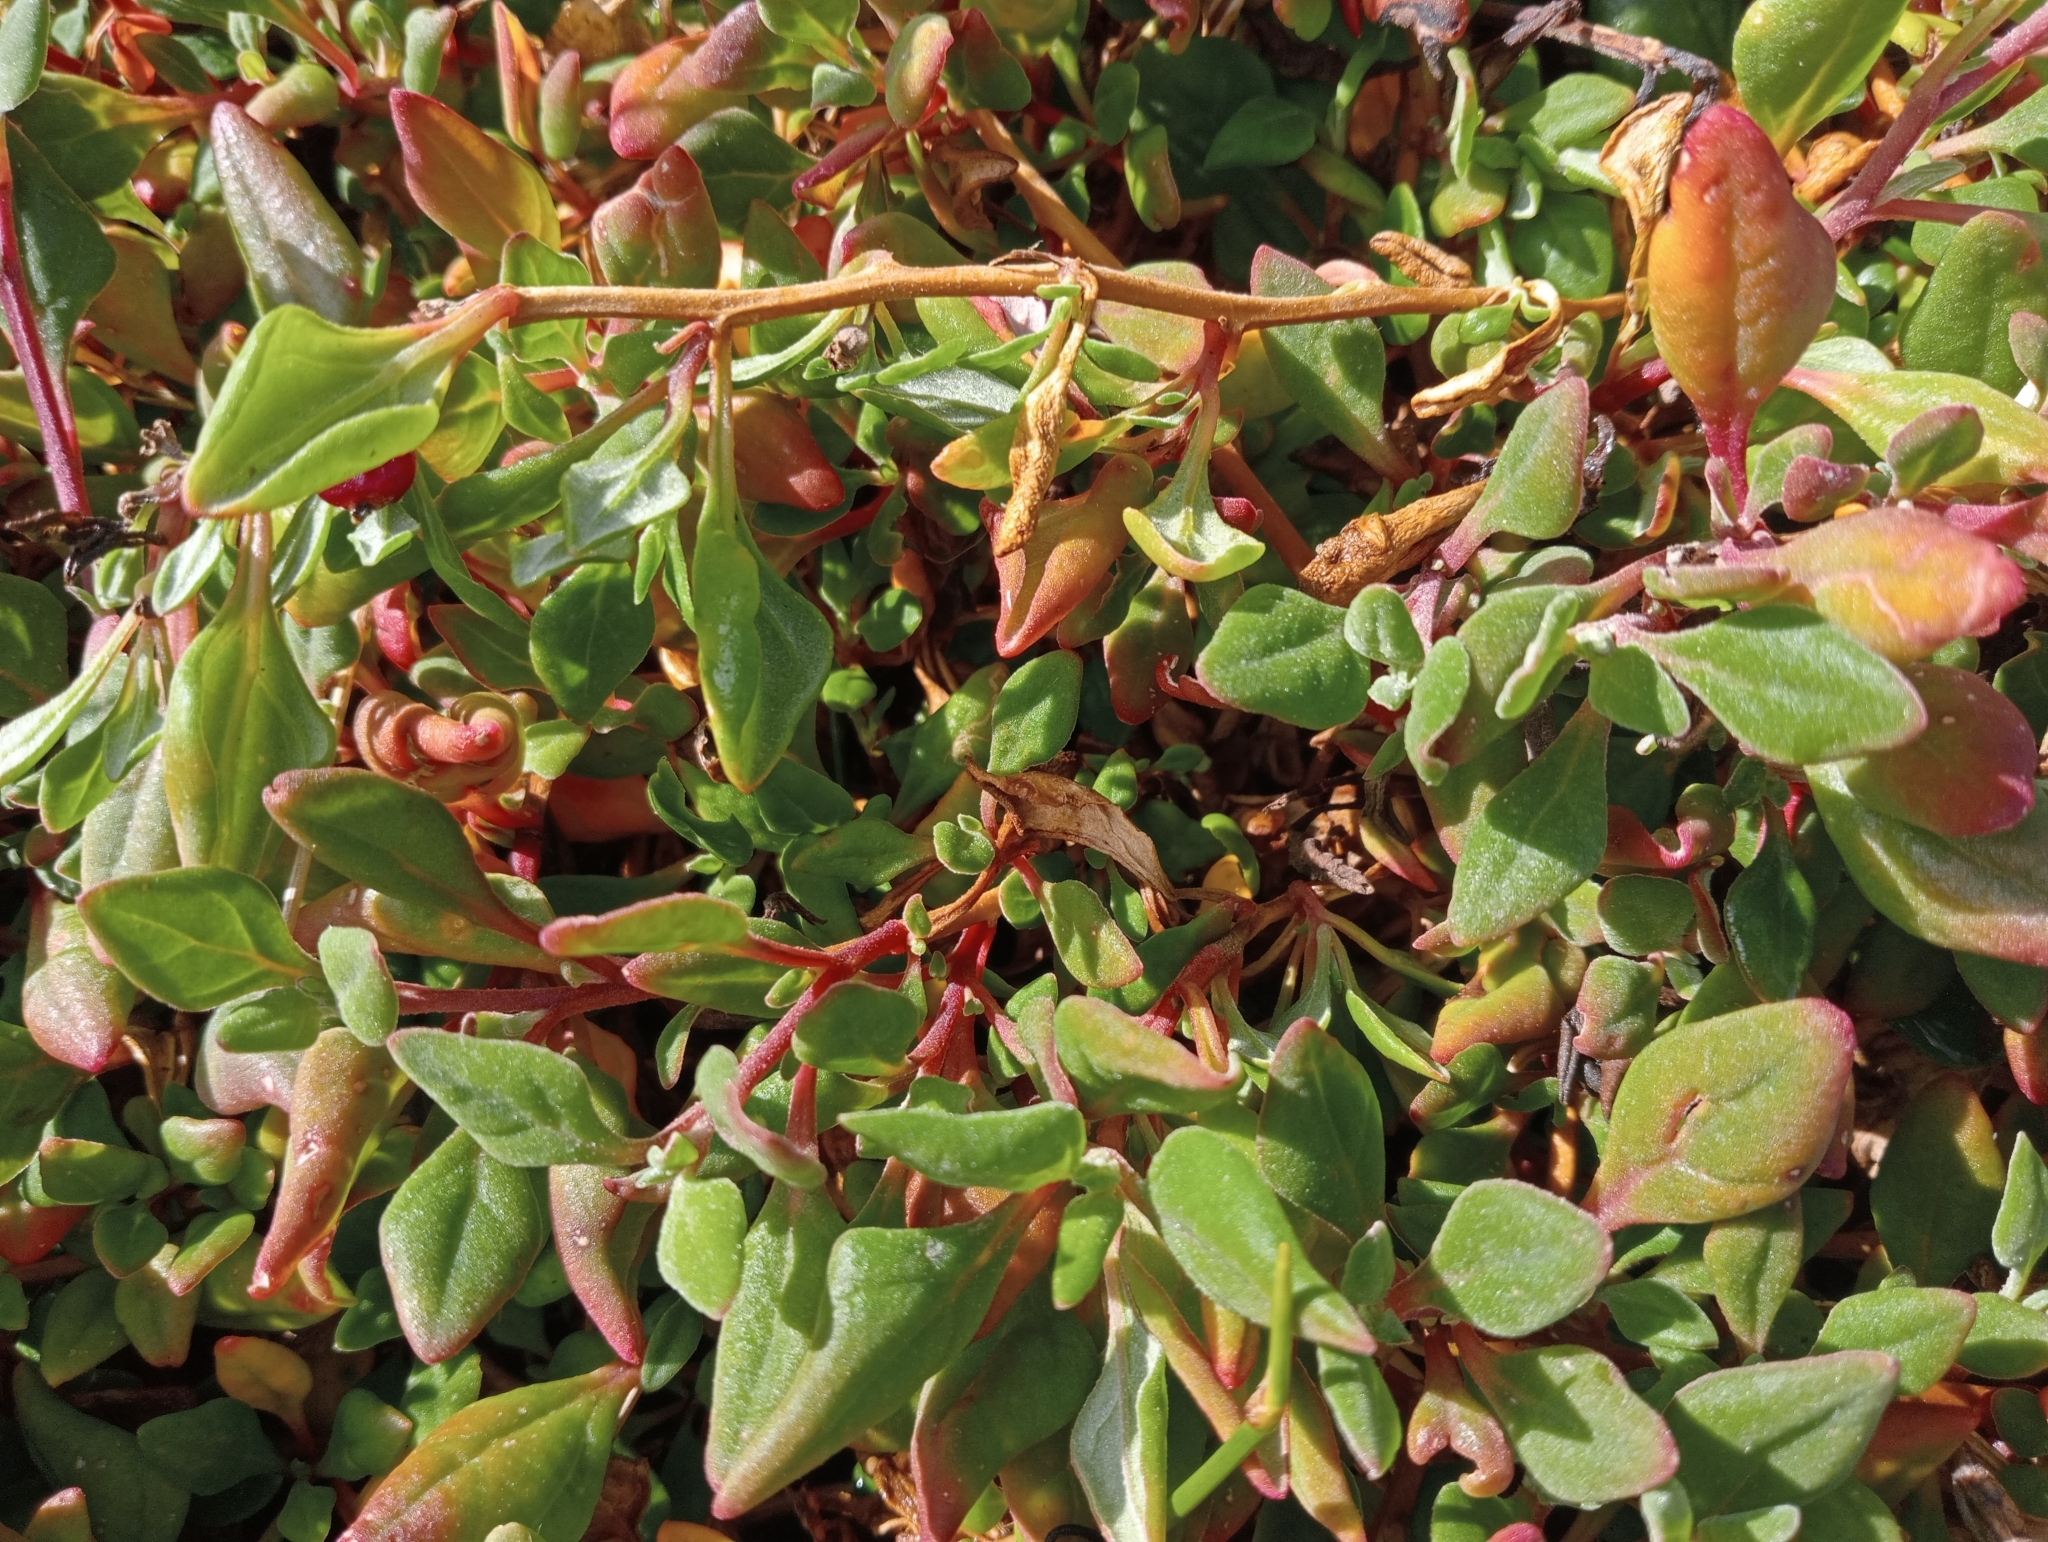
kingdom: Plantae
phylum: Tracheophyta
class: Magnoliopsida
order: Caryophyllales
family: Aizoaceae
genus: Tetragonia
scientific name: Tetragonia implexicoma
